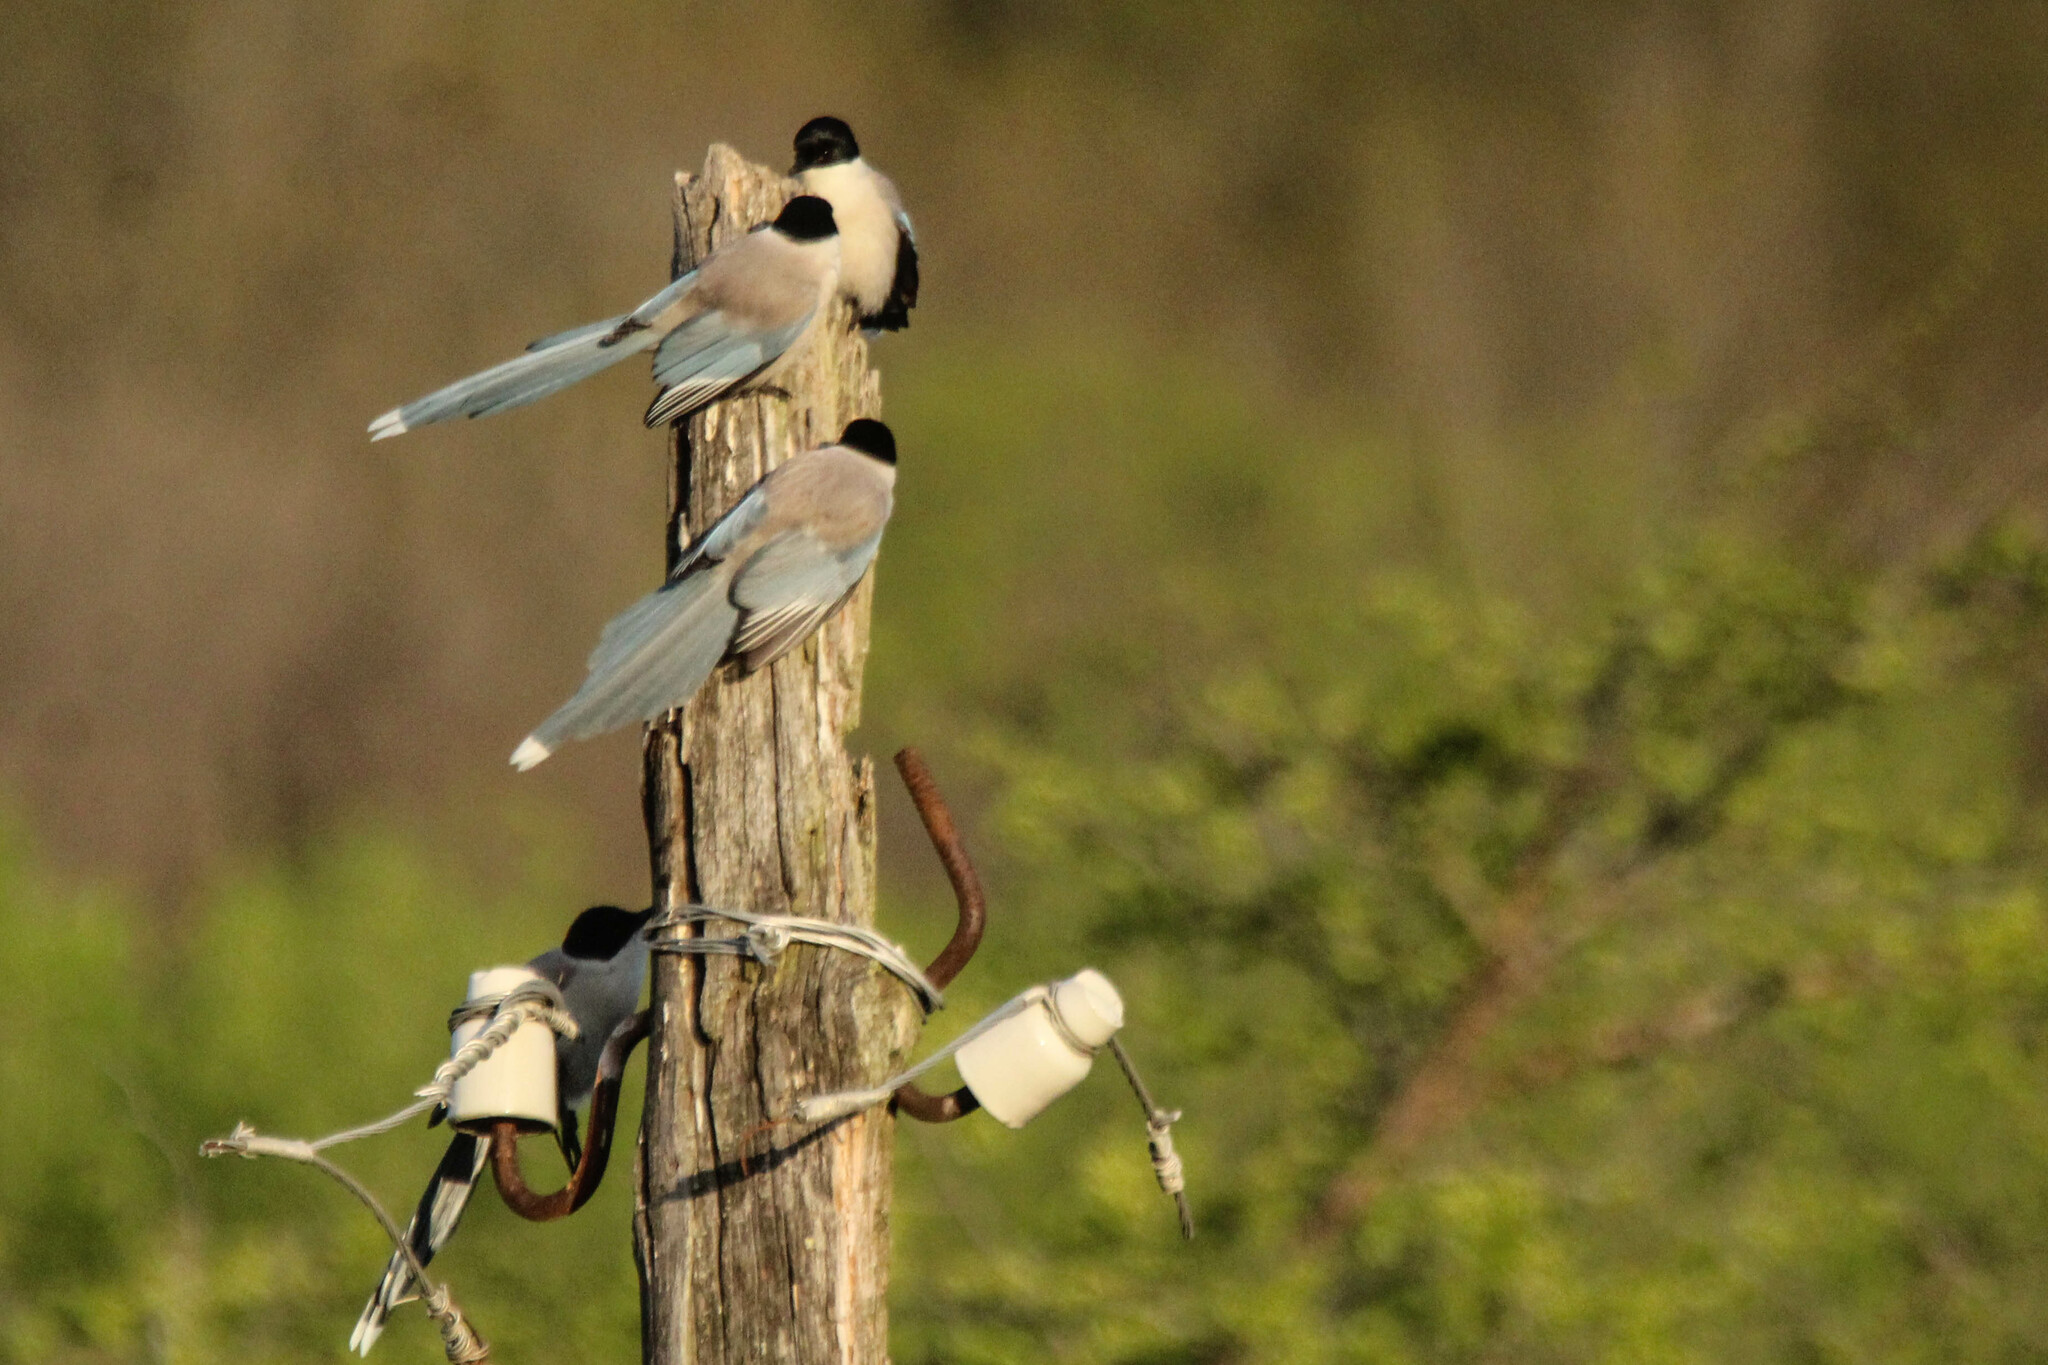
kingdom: Animalia
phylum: Chordata
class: Aves
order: Passeriformes
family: Corvidae
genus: Cyanopica
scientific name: Cyanopica cyanus
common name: Azure-winged magpie
